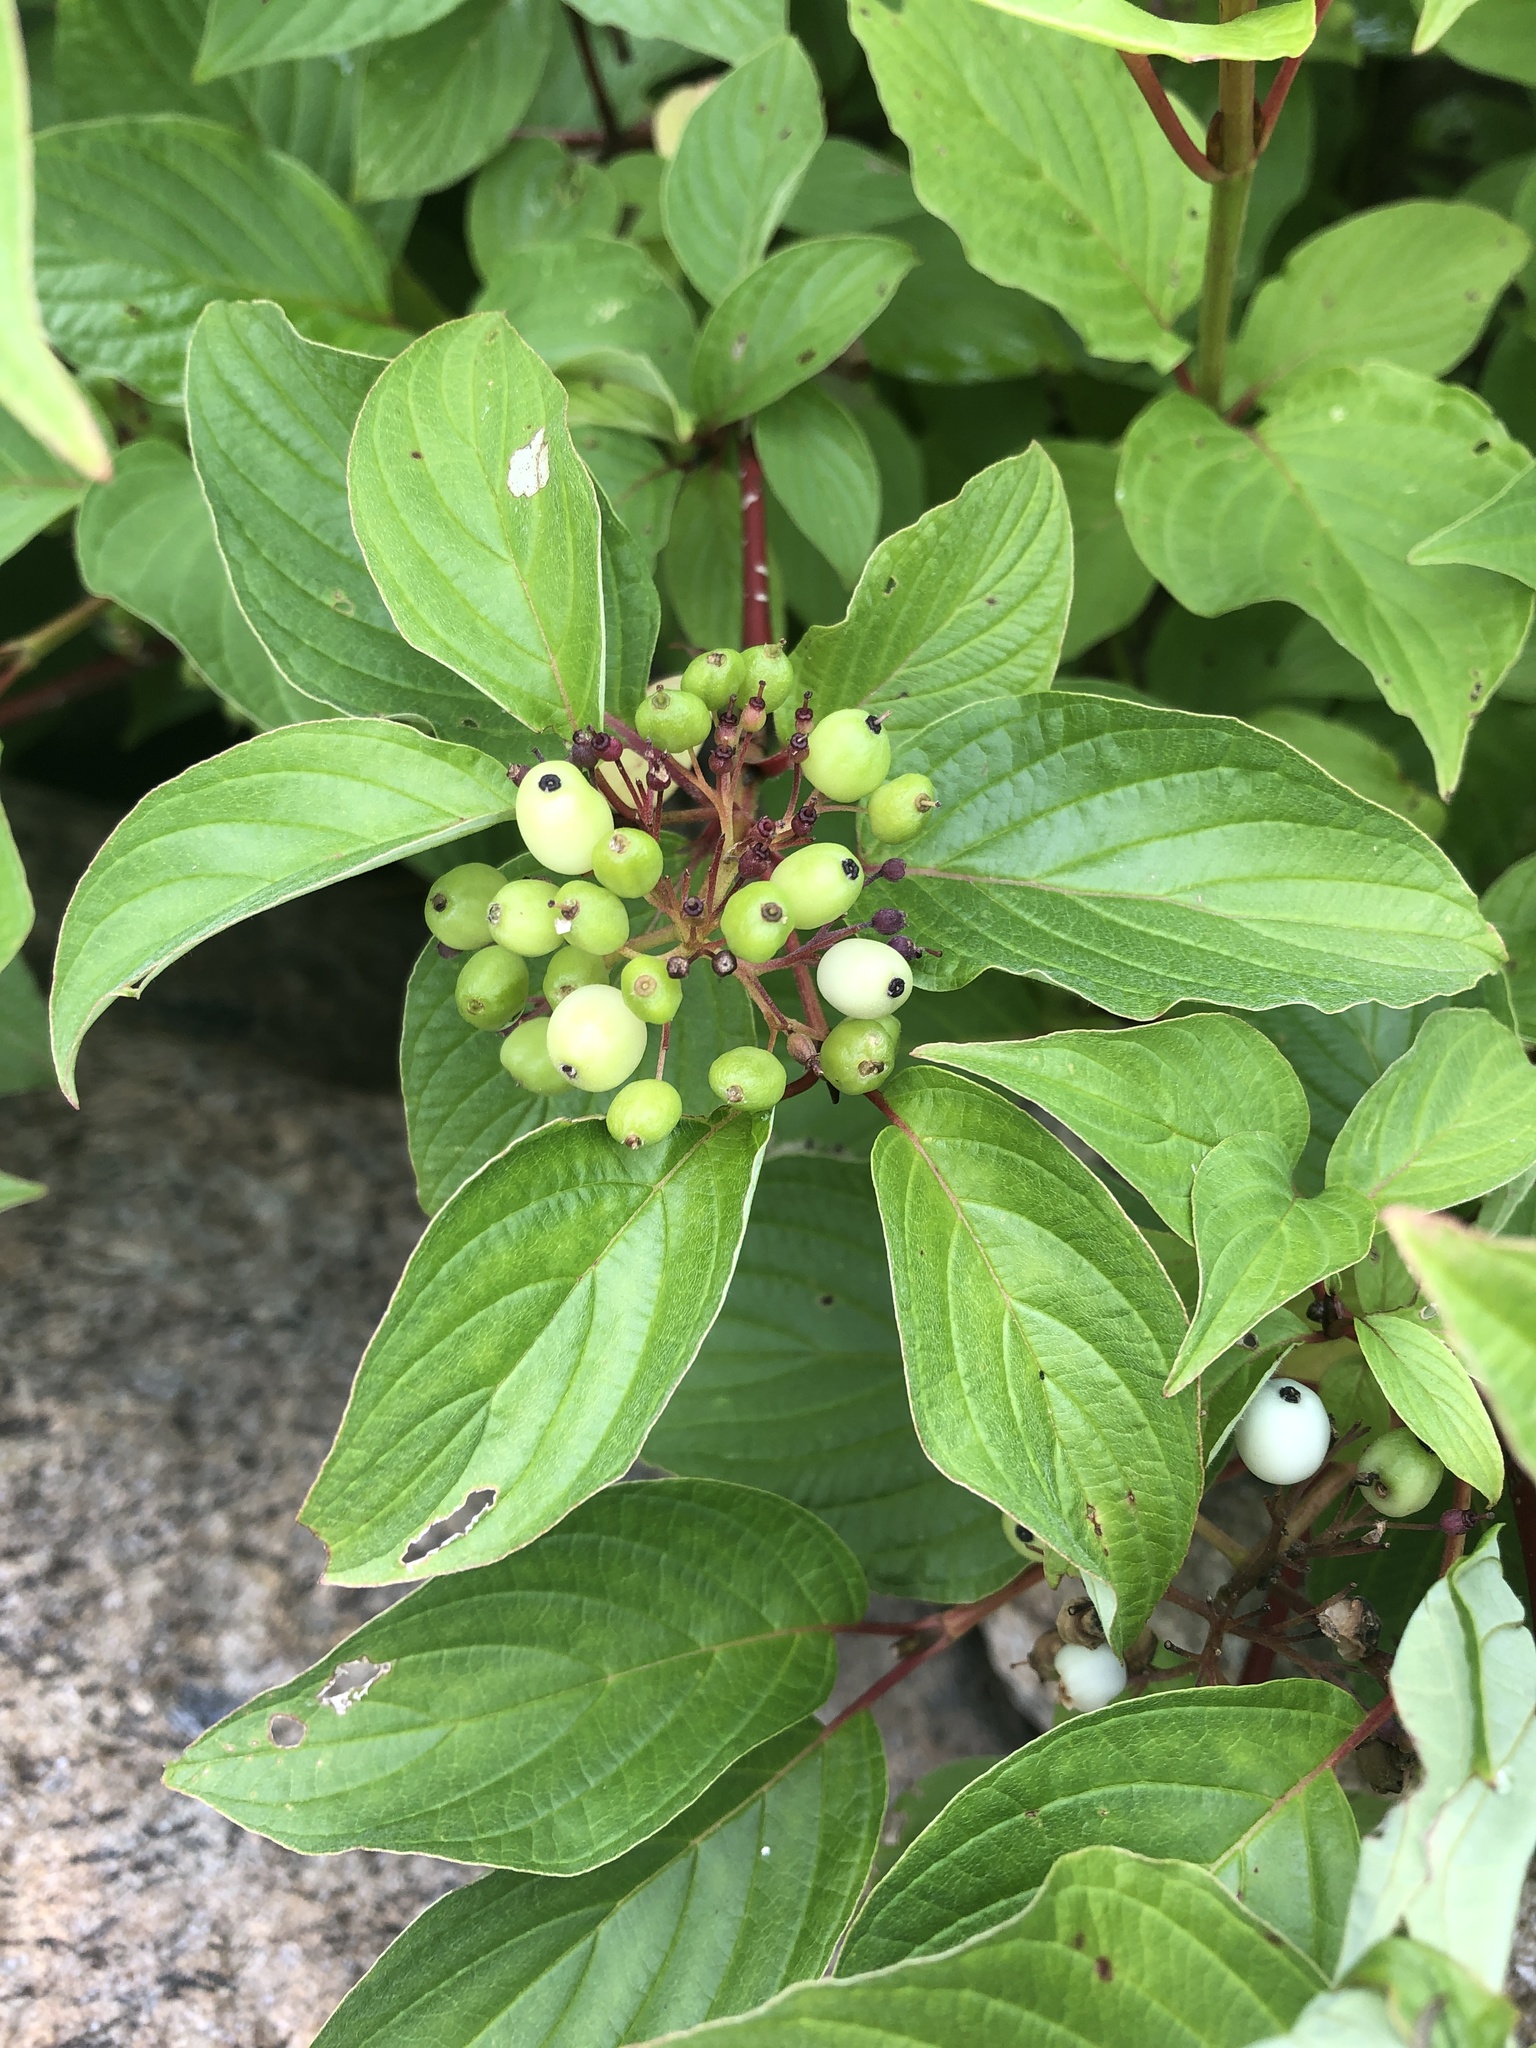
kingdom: Plantae
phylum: Tracheophyta
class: Magnoliopsida
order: Cornales
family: Cornaceae
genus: Cornus
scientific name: Cornus sericea
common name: Red-osier dogwood
